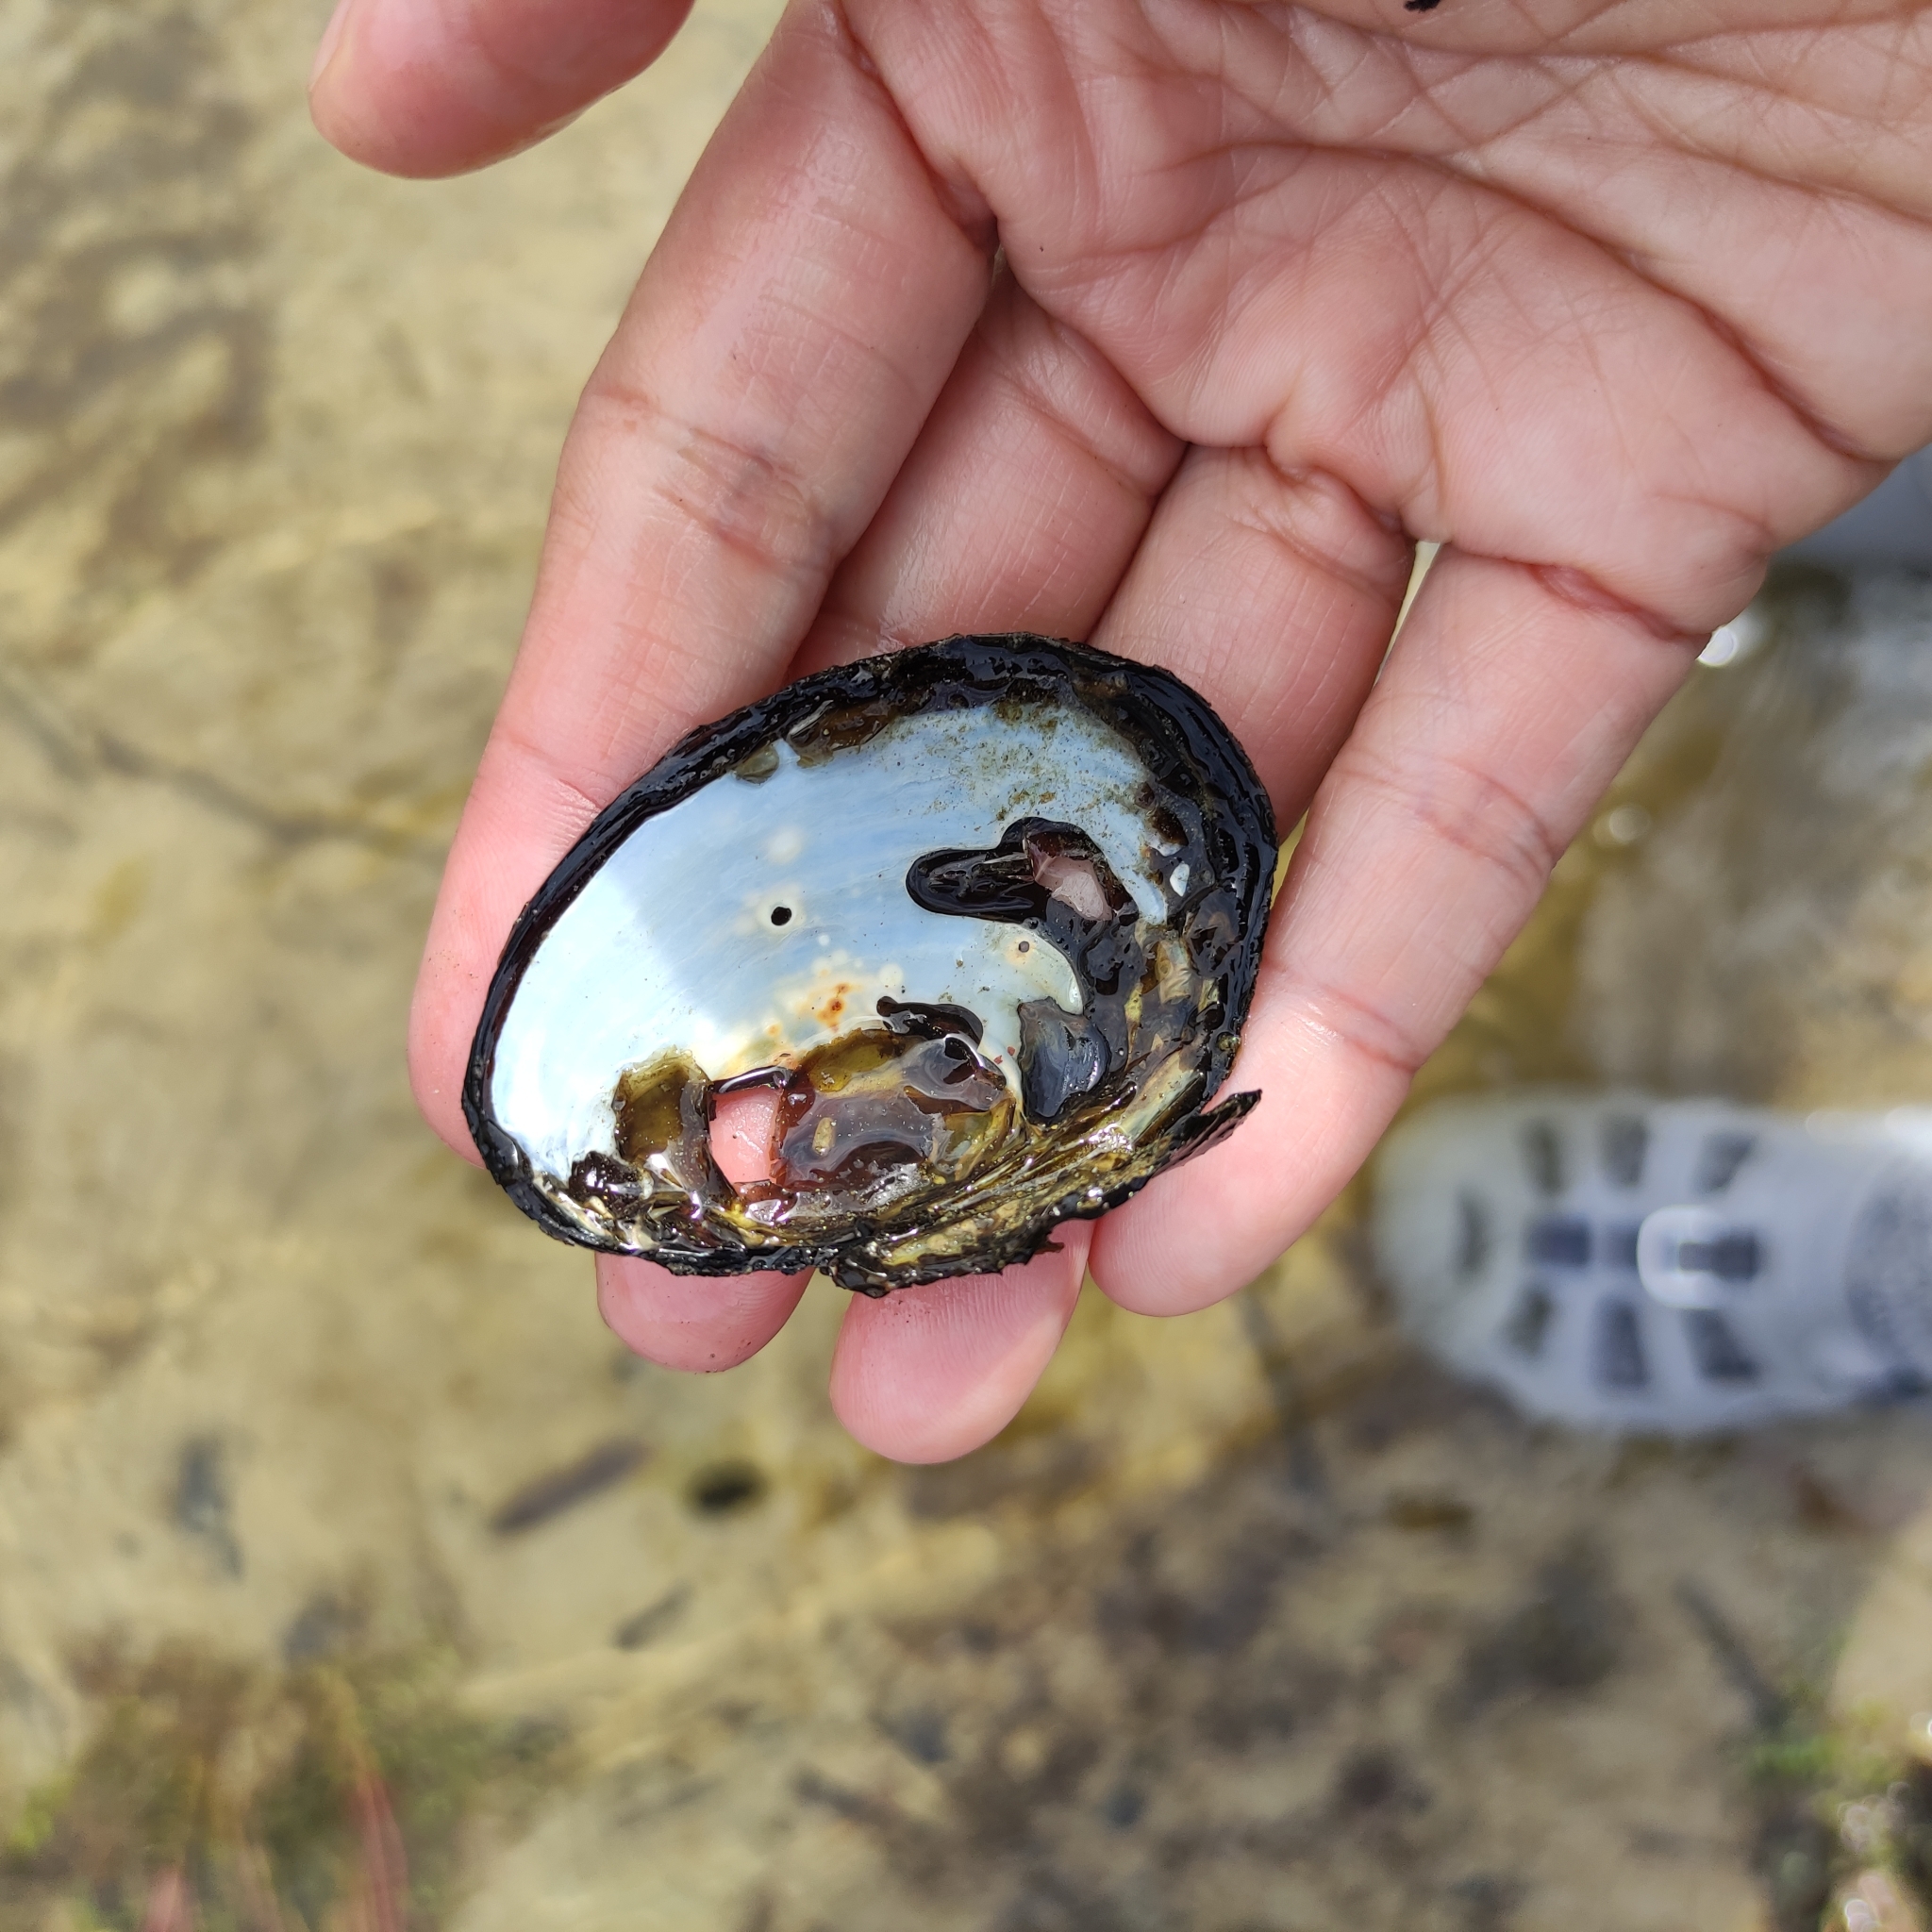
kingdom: Animalia
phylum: Mollusca
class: Bivalvia
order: Unionida
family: Hyriidae
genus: Echyridella
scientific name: Echyridella menziesii
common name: New zealand freshwater mussel
